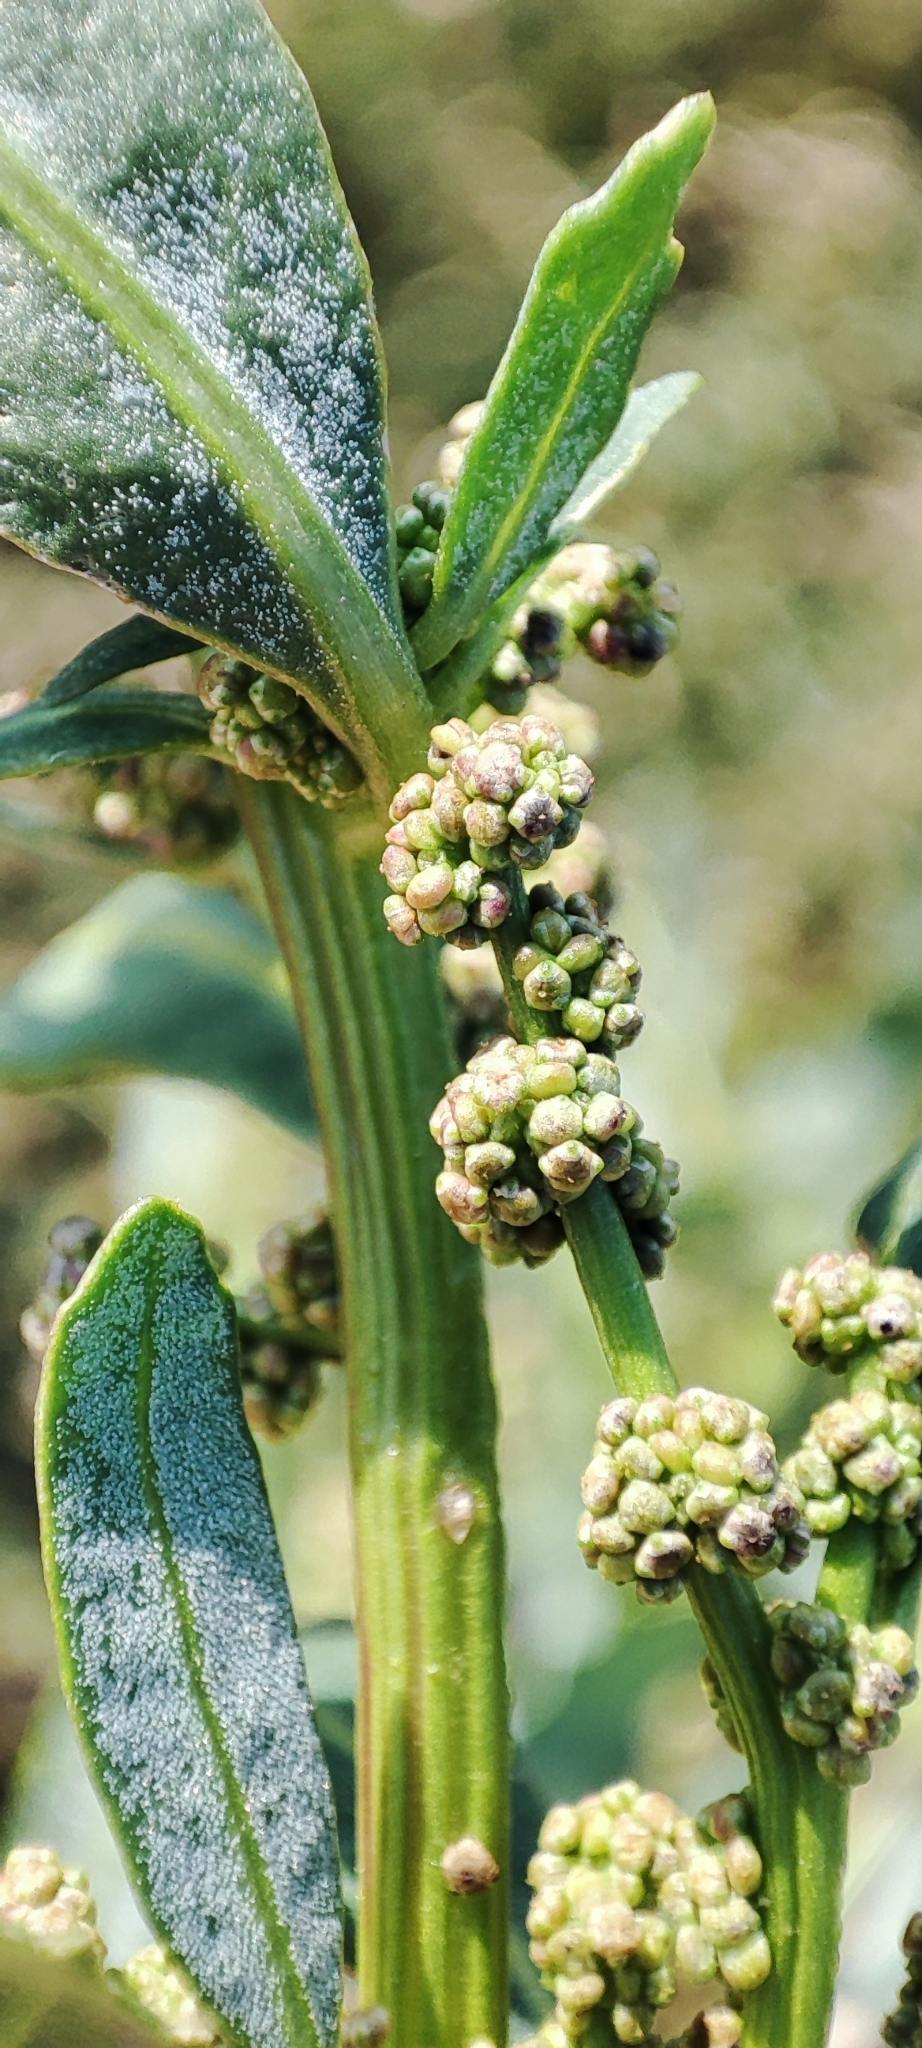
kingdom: Plantae
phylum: Tracheophyta
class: Magnoliopsida
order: Caryophyllales
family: Amaranthaceae
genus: Oxybasis
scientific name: Oxybasis glauca
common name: Glaucous goosefoot
